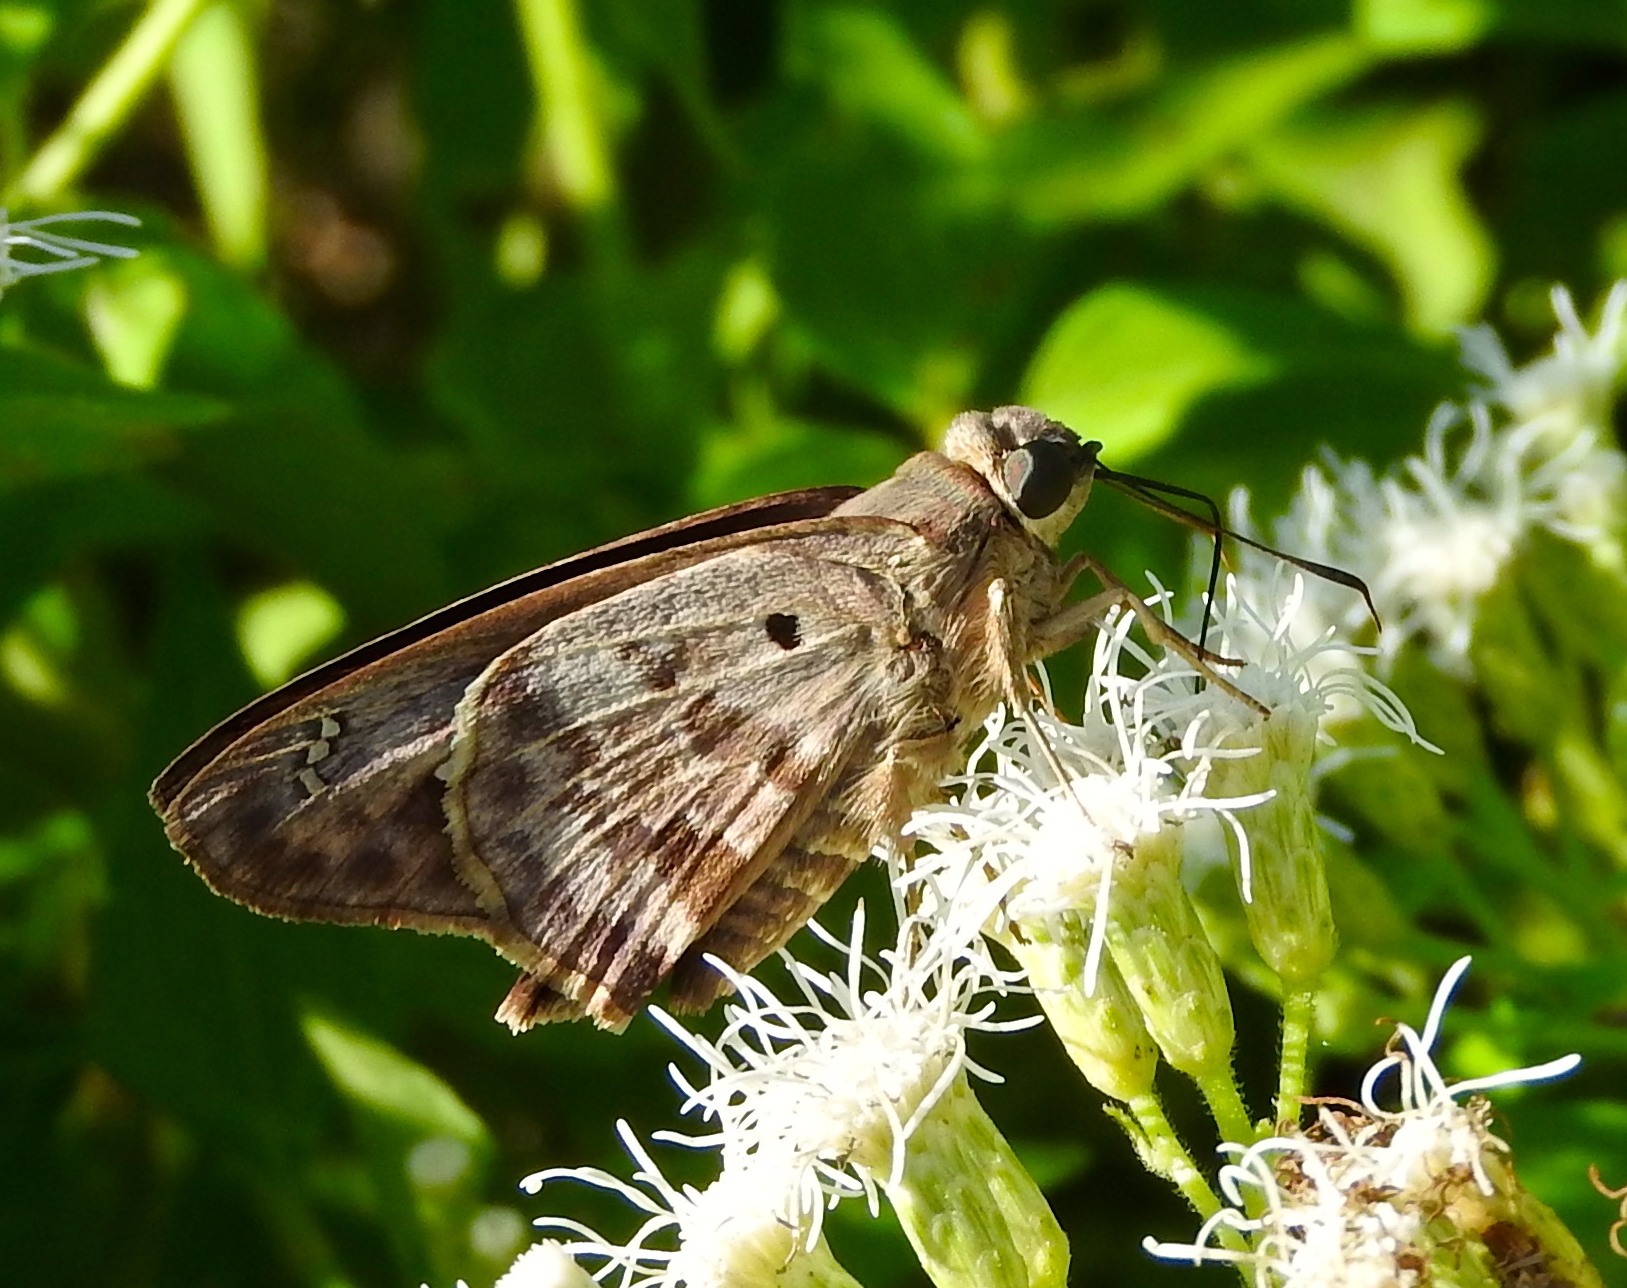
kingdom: Animalia
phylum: Arthropoda
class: Insecta
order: Lepidoptera
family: Hesperiidae
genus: Polygonus
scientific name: Polygonus
